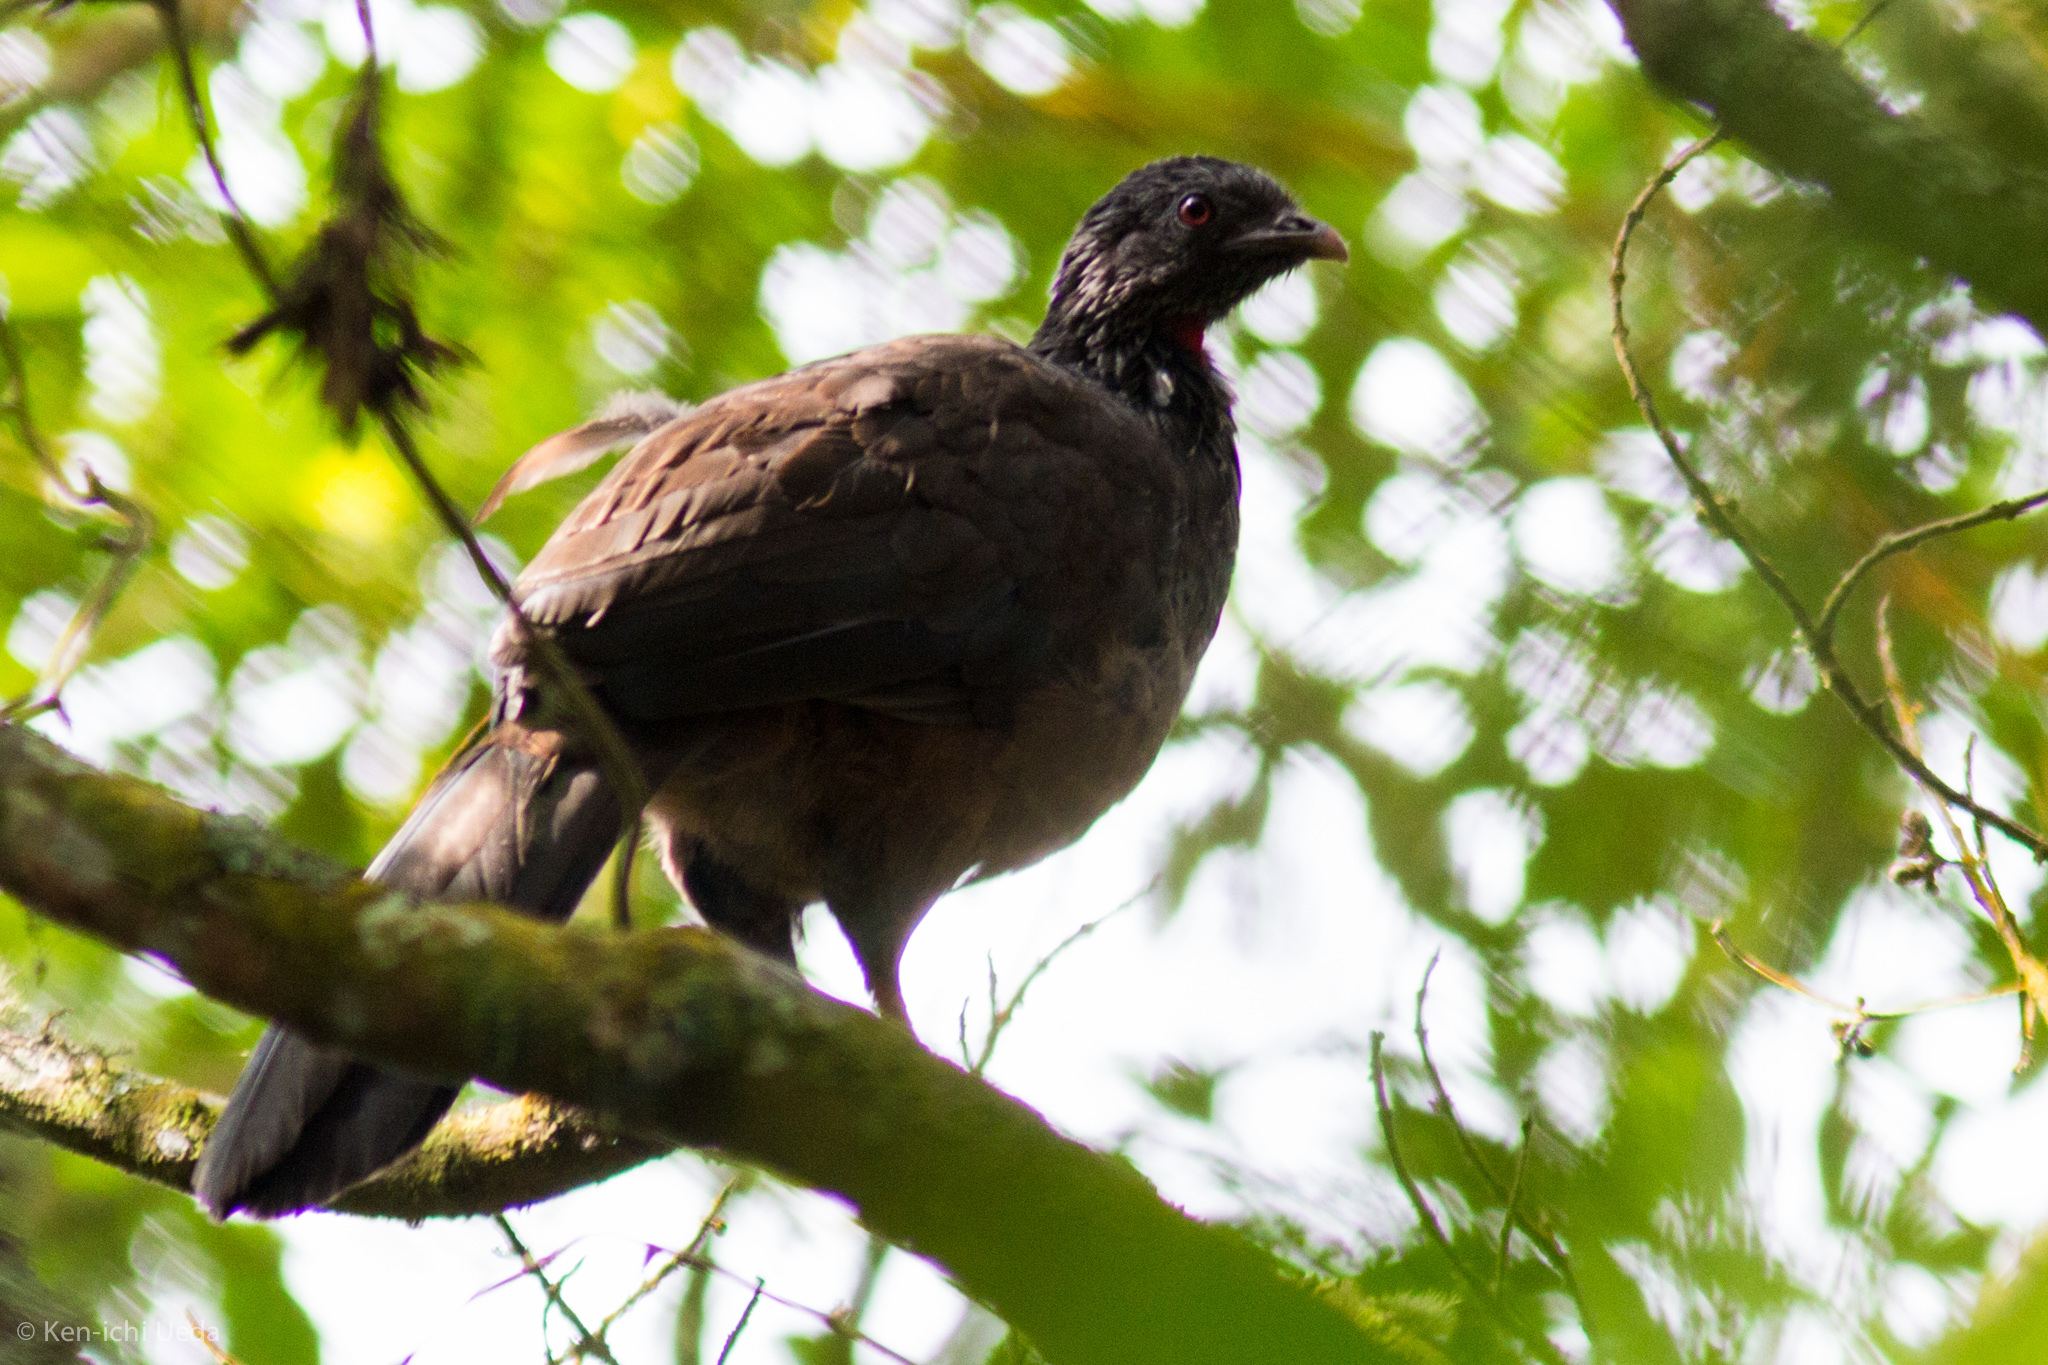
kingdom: Animalia
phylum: Chordata
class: Aves
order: Galliformes
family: Cracidae
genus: Penelope
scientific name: Penelope montagnii
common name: Andean guan
